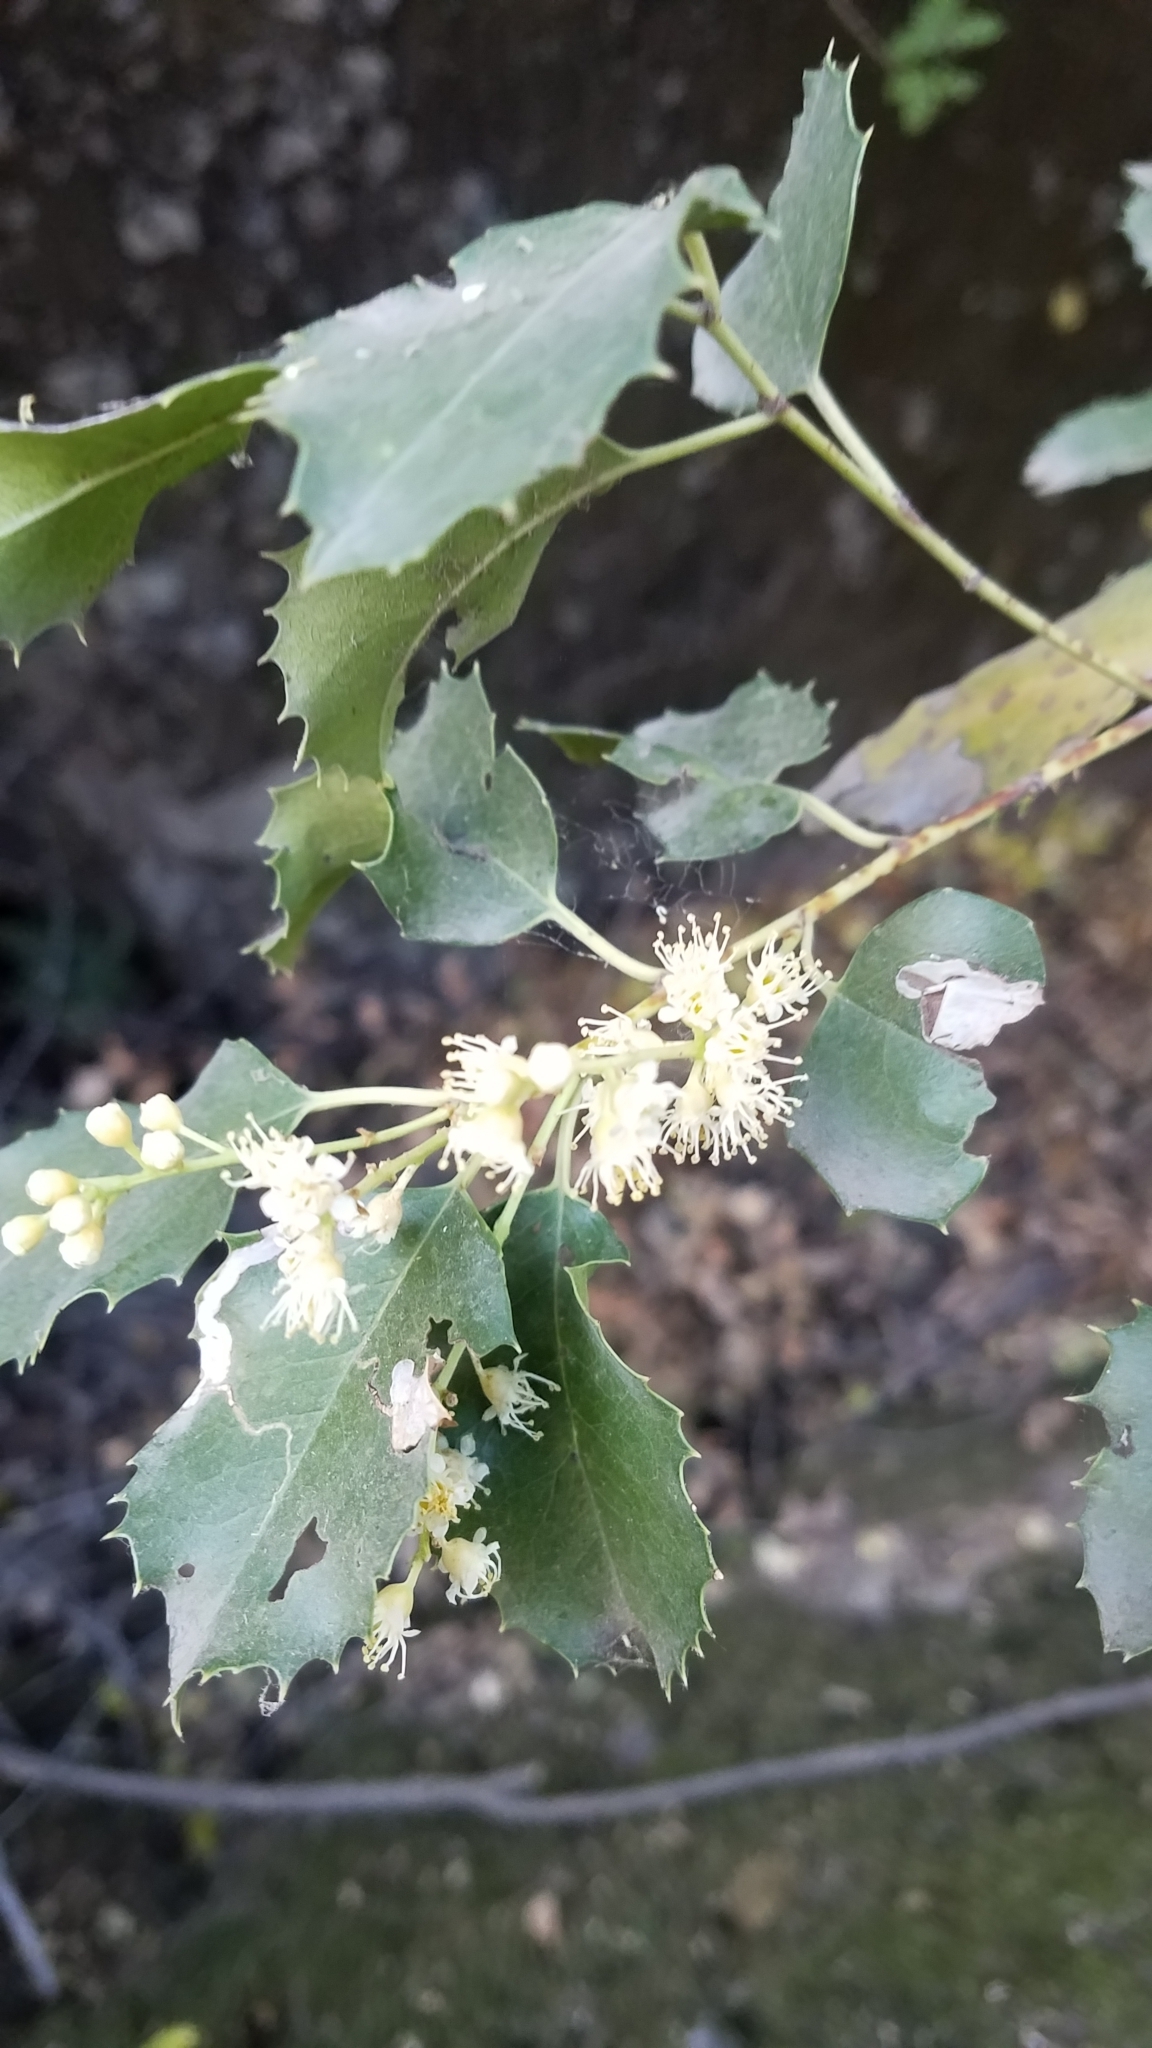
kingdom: Plantae
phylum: Tracheophyta
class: Magnoliopsida
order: Rosales
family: Rosaceae
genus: Prunus
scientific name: Prunus ilicifolia
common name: Hollyleaf cherry
